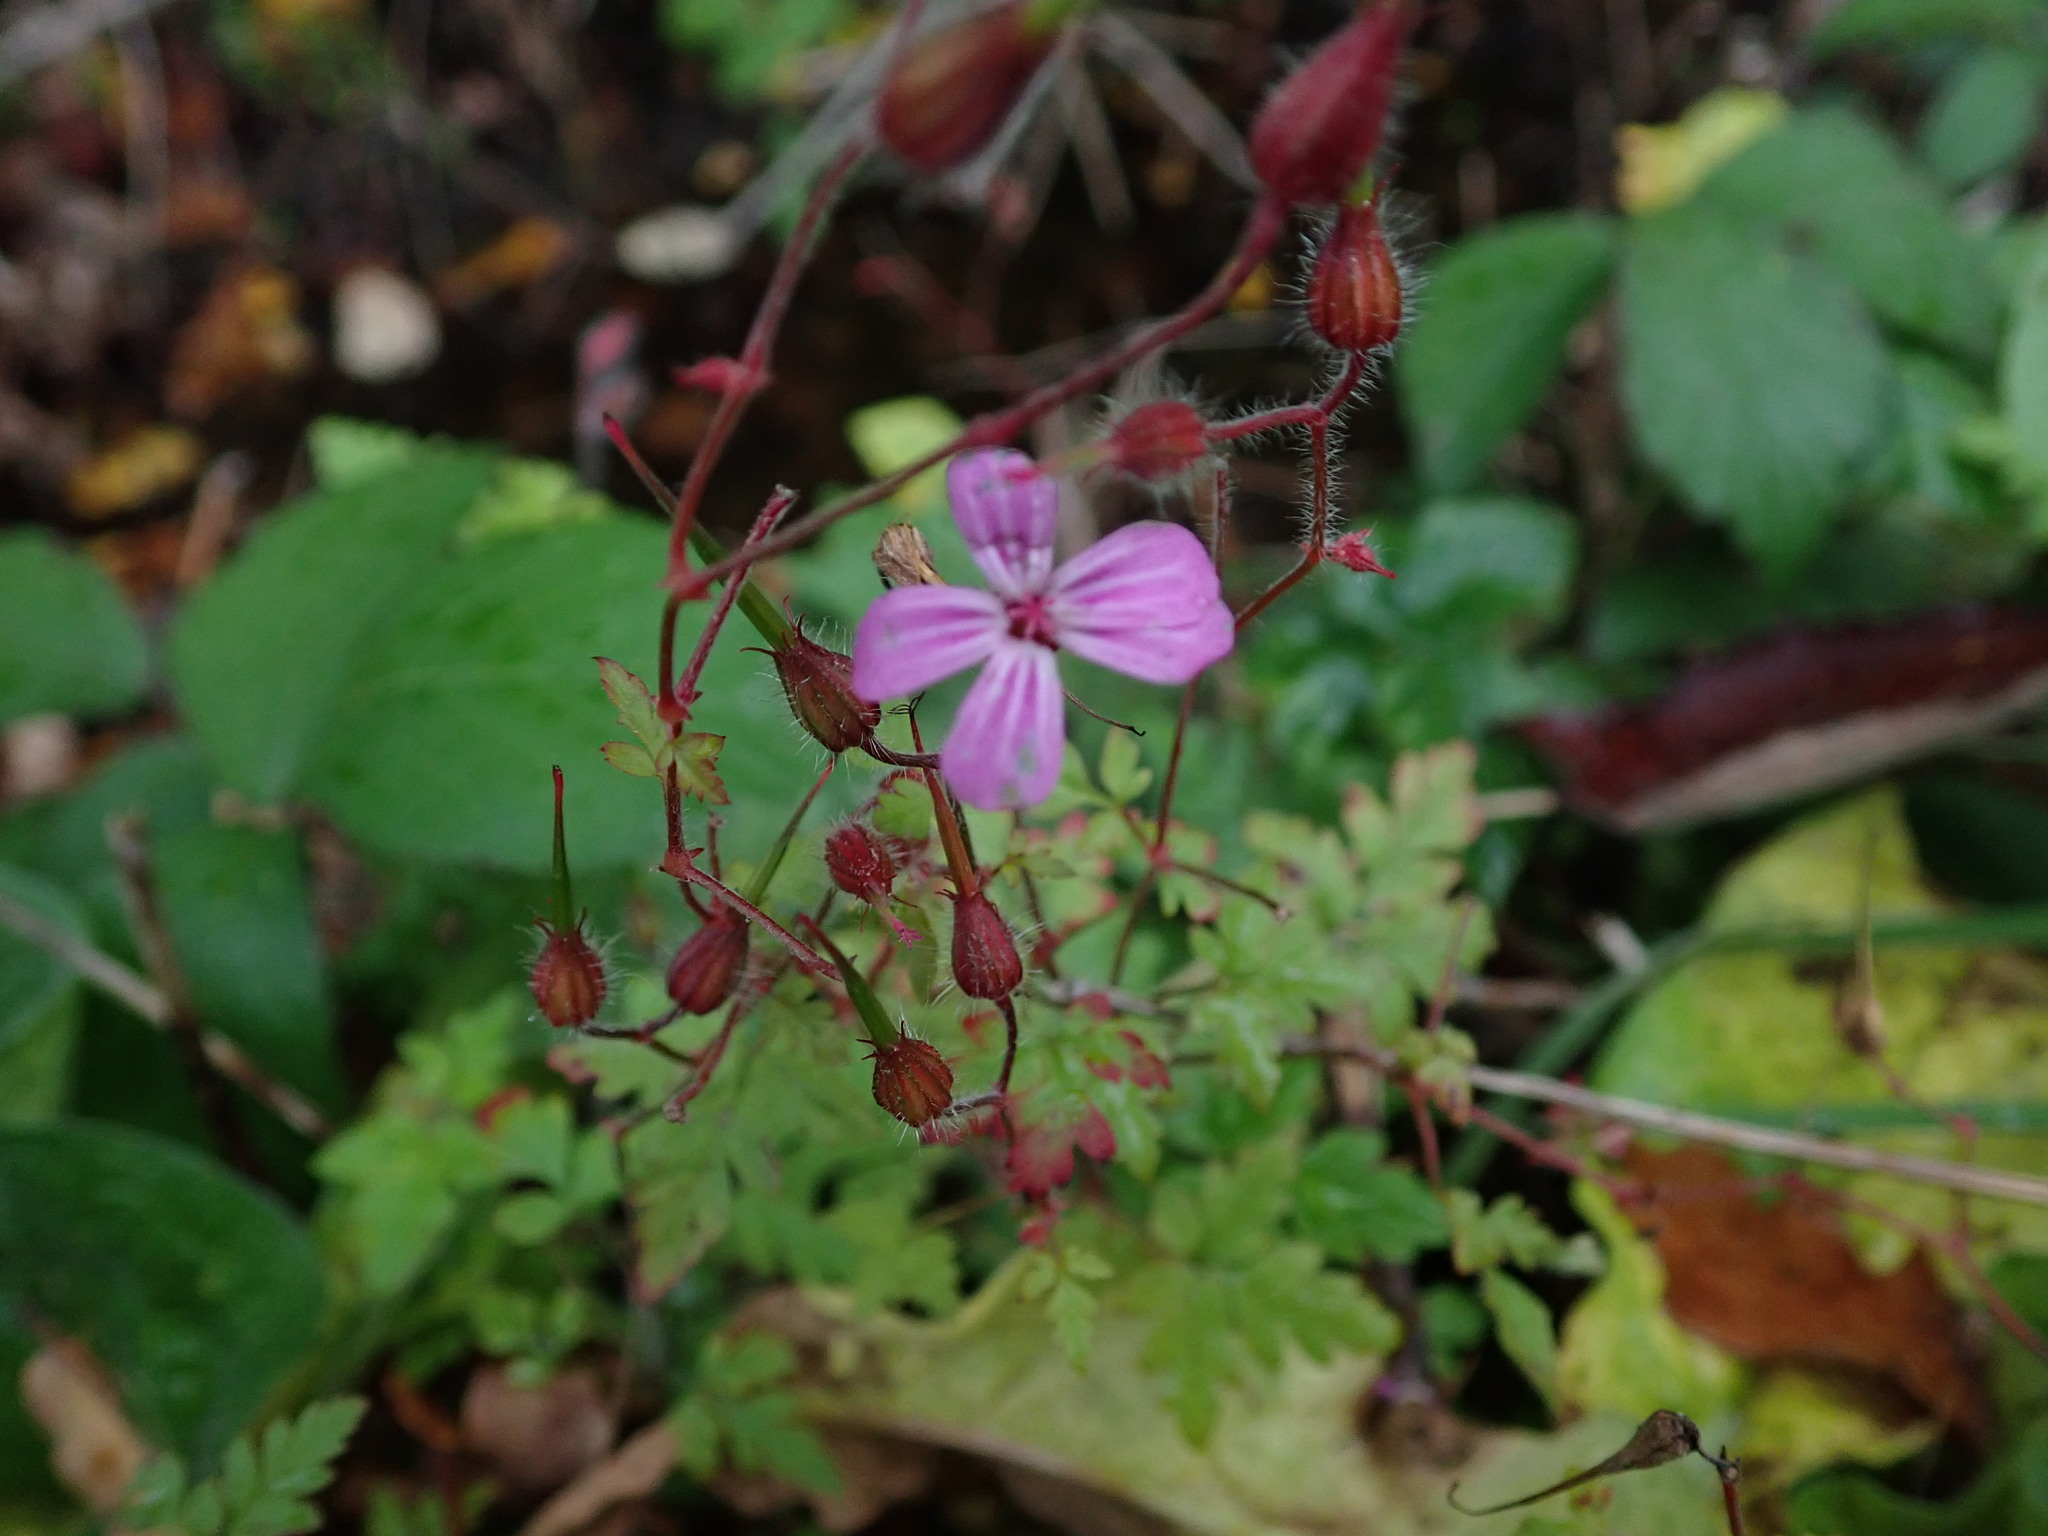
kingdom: Plantae
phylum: Tracheophyta
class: Magnoliopsida
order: Geraniales
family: Geraniaceae
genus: Geranium
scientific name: Geranium robertianum
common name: Herb-robert
